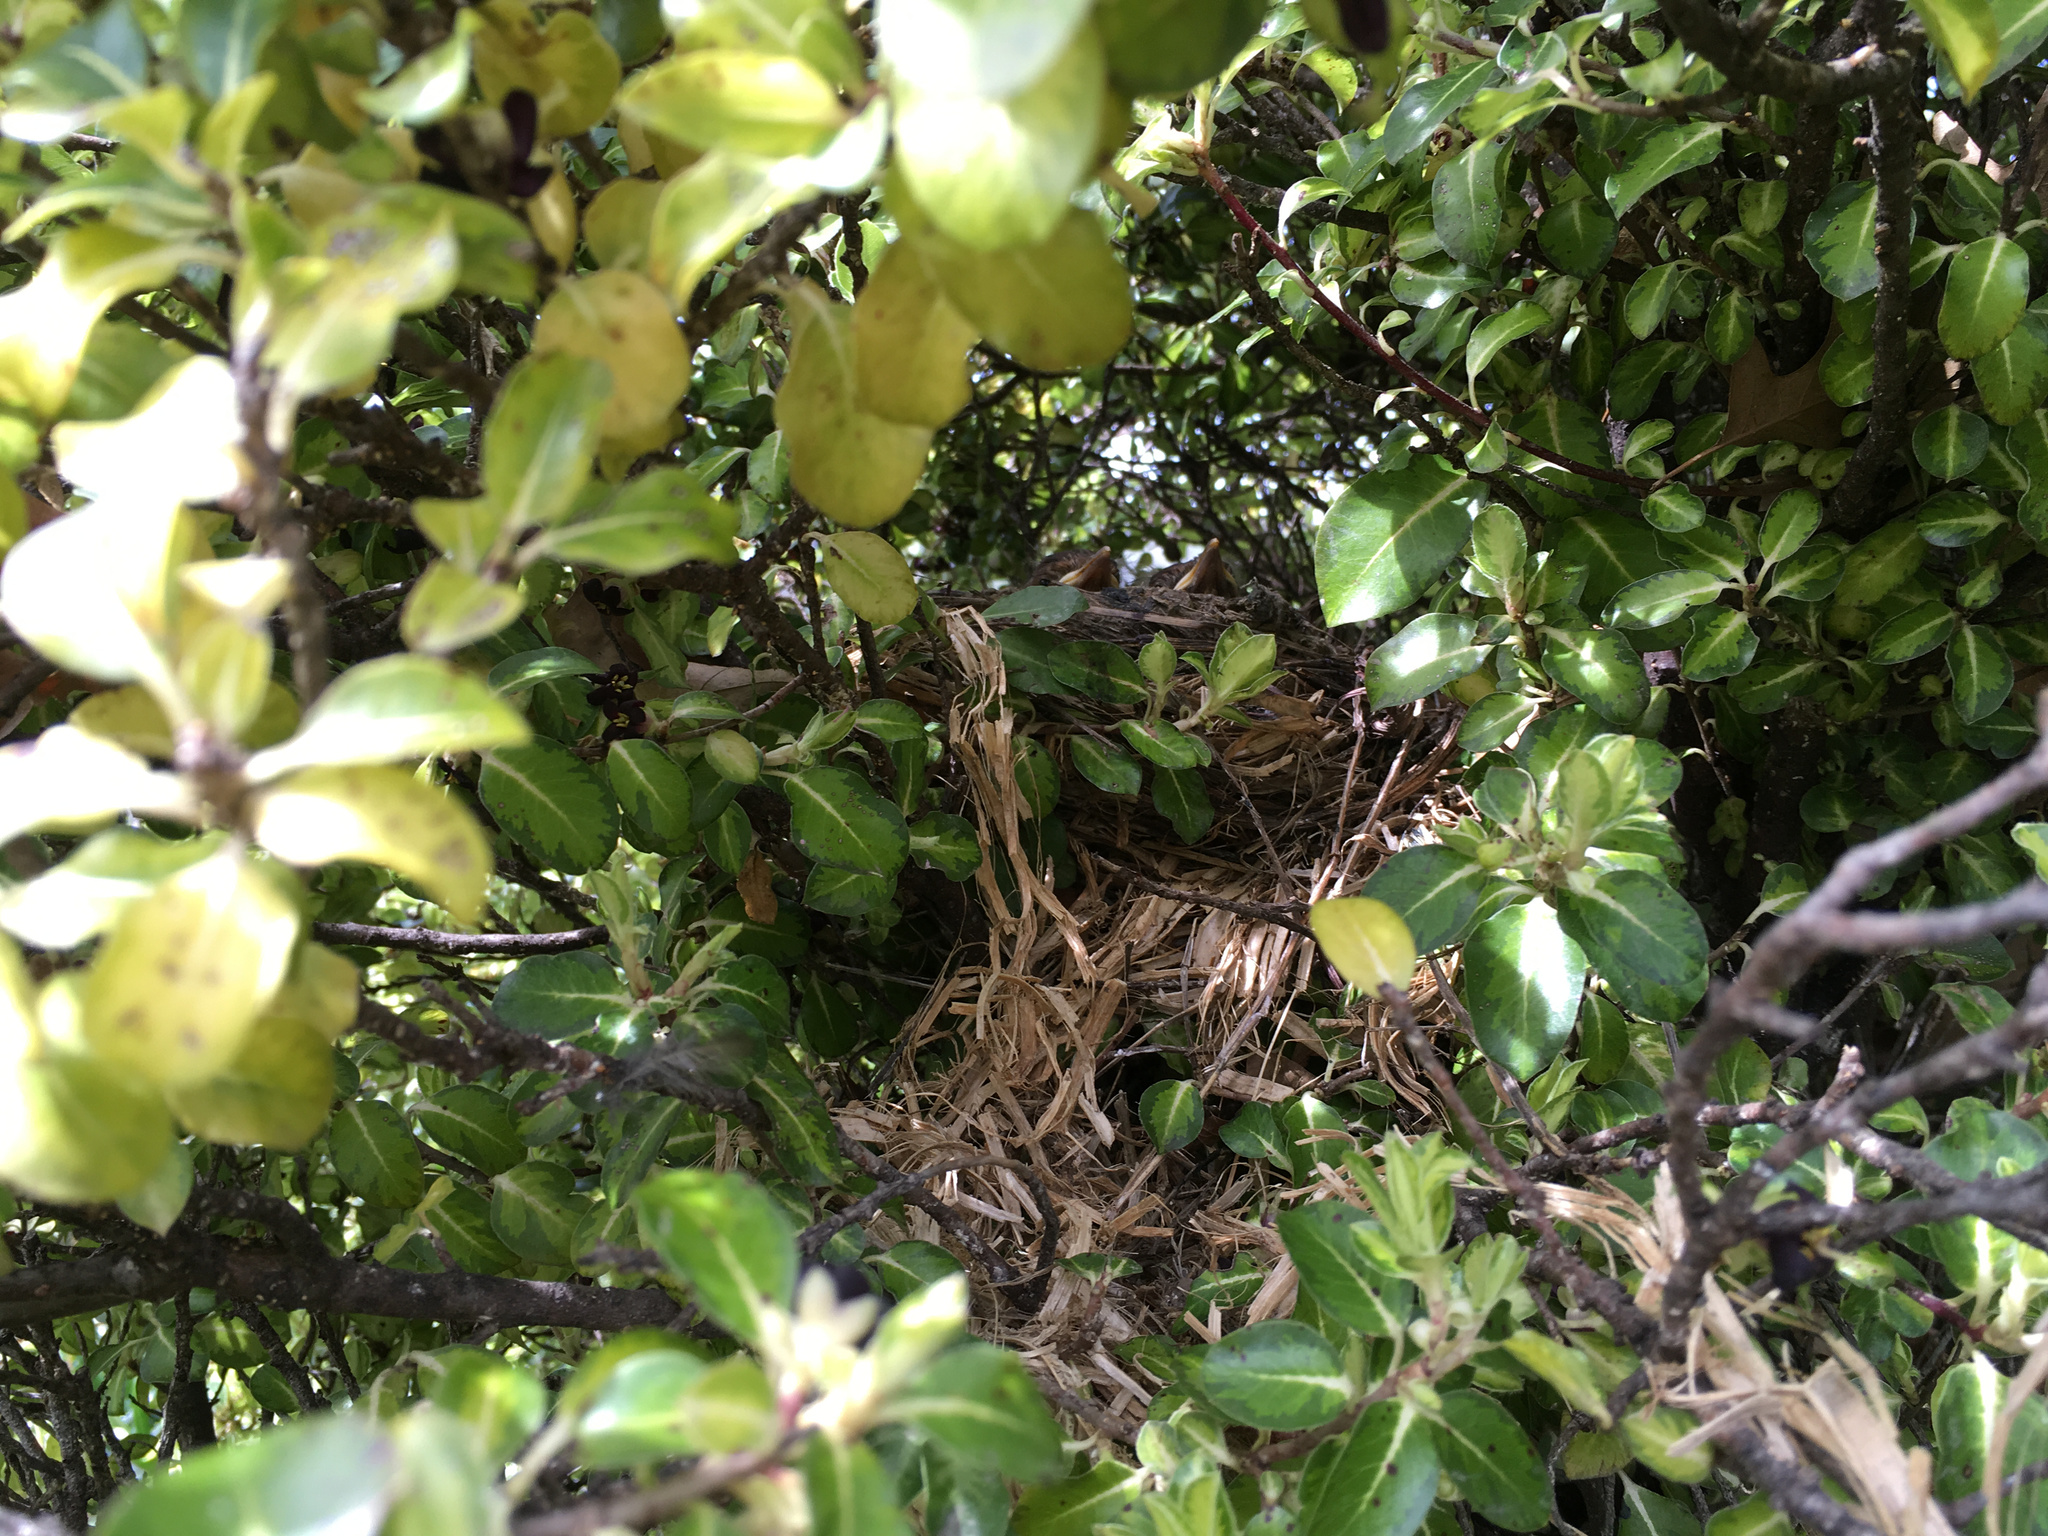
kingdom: Animalia
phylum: Chordata
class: Aves
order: Passeriformes
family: Turdidae
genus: Turdus
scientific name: Turdus merula
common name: Common blackbird
